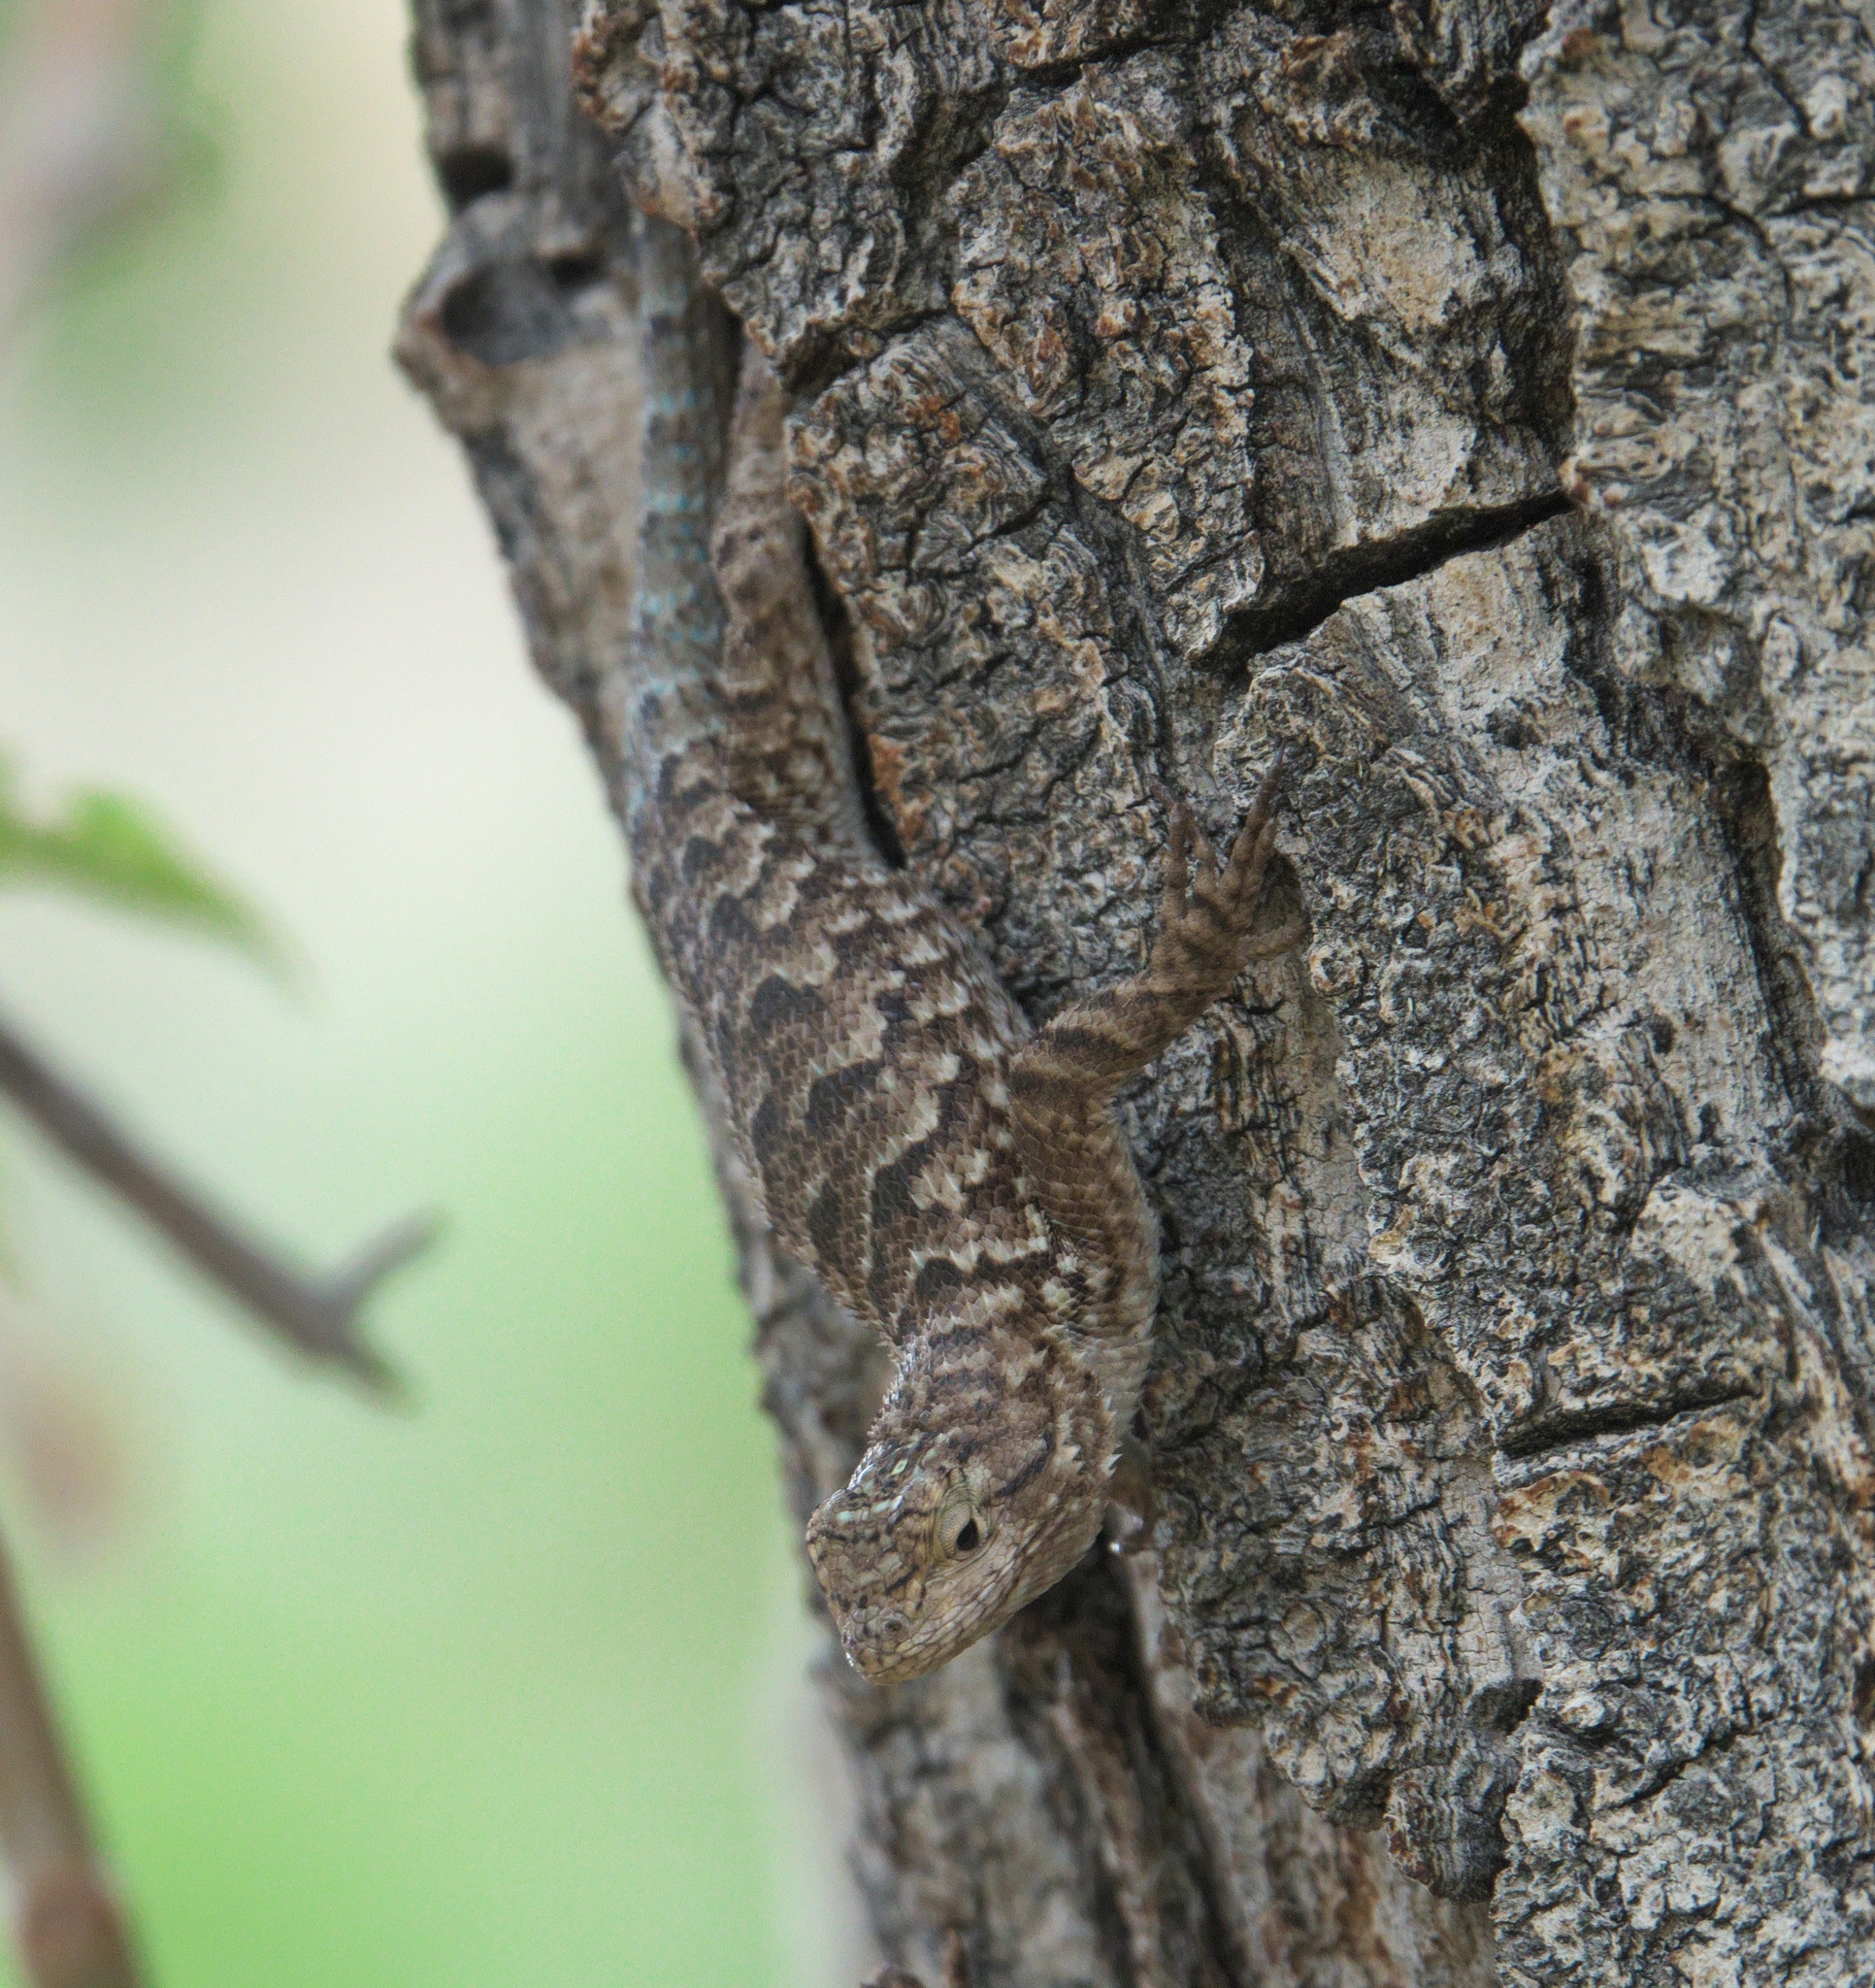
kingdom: Animalia
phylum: Chordata
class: Squamata
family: Phrynosomatidae
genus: Sceloporus
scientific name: Sceloporus occidentalis
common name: Western fence lizard
